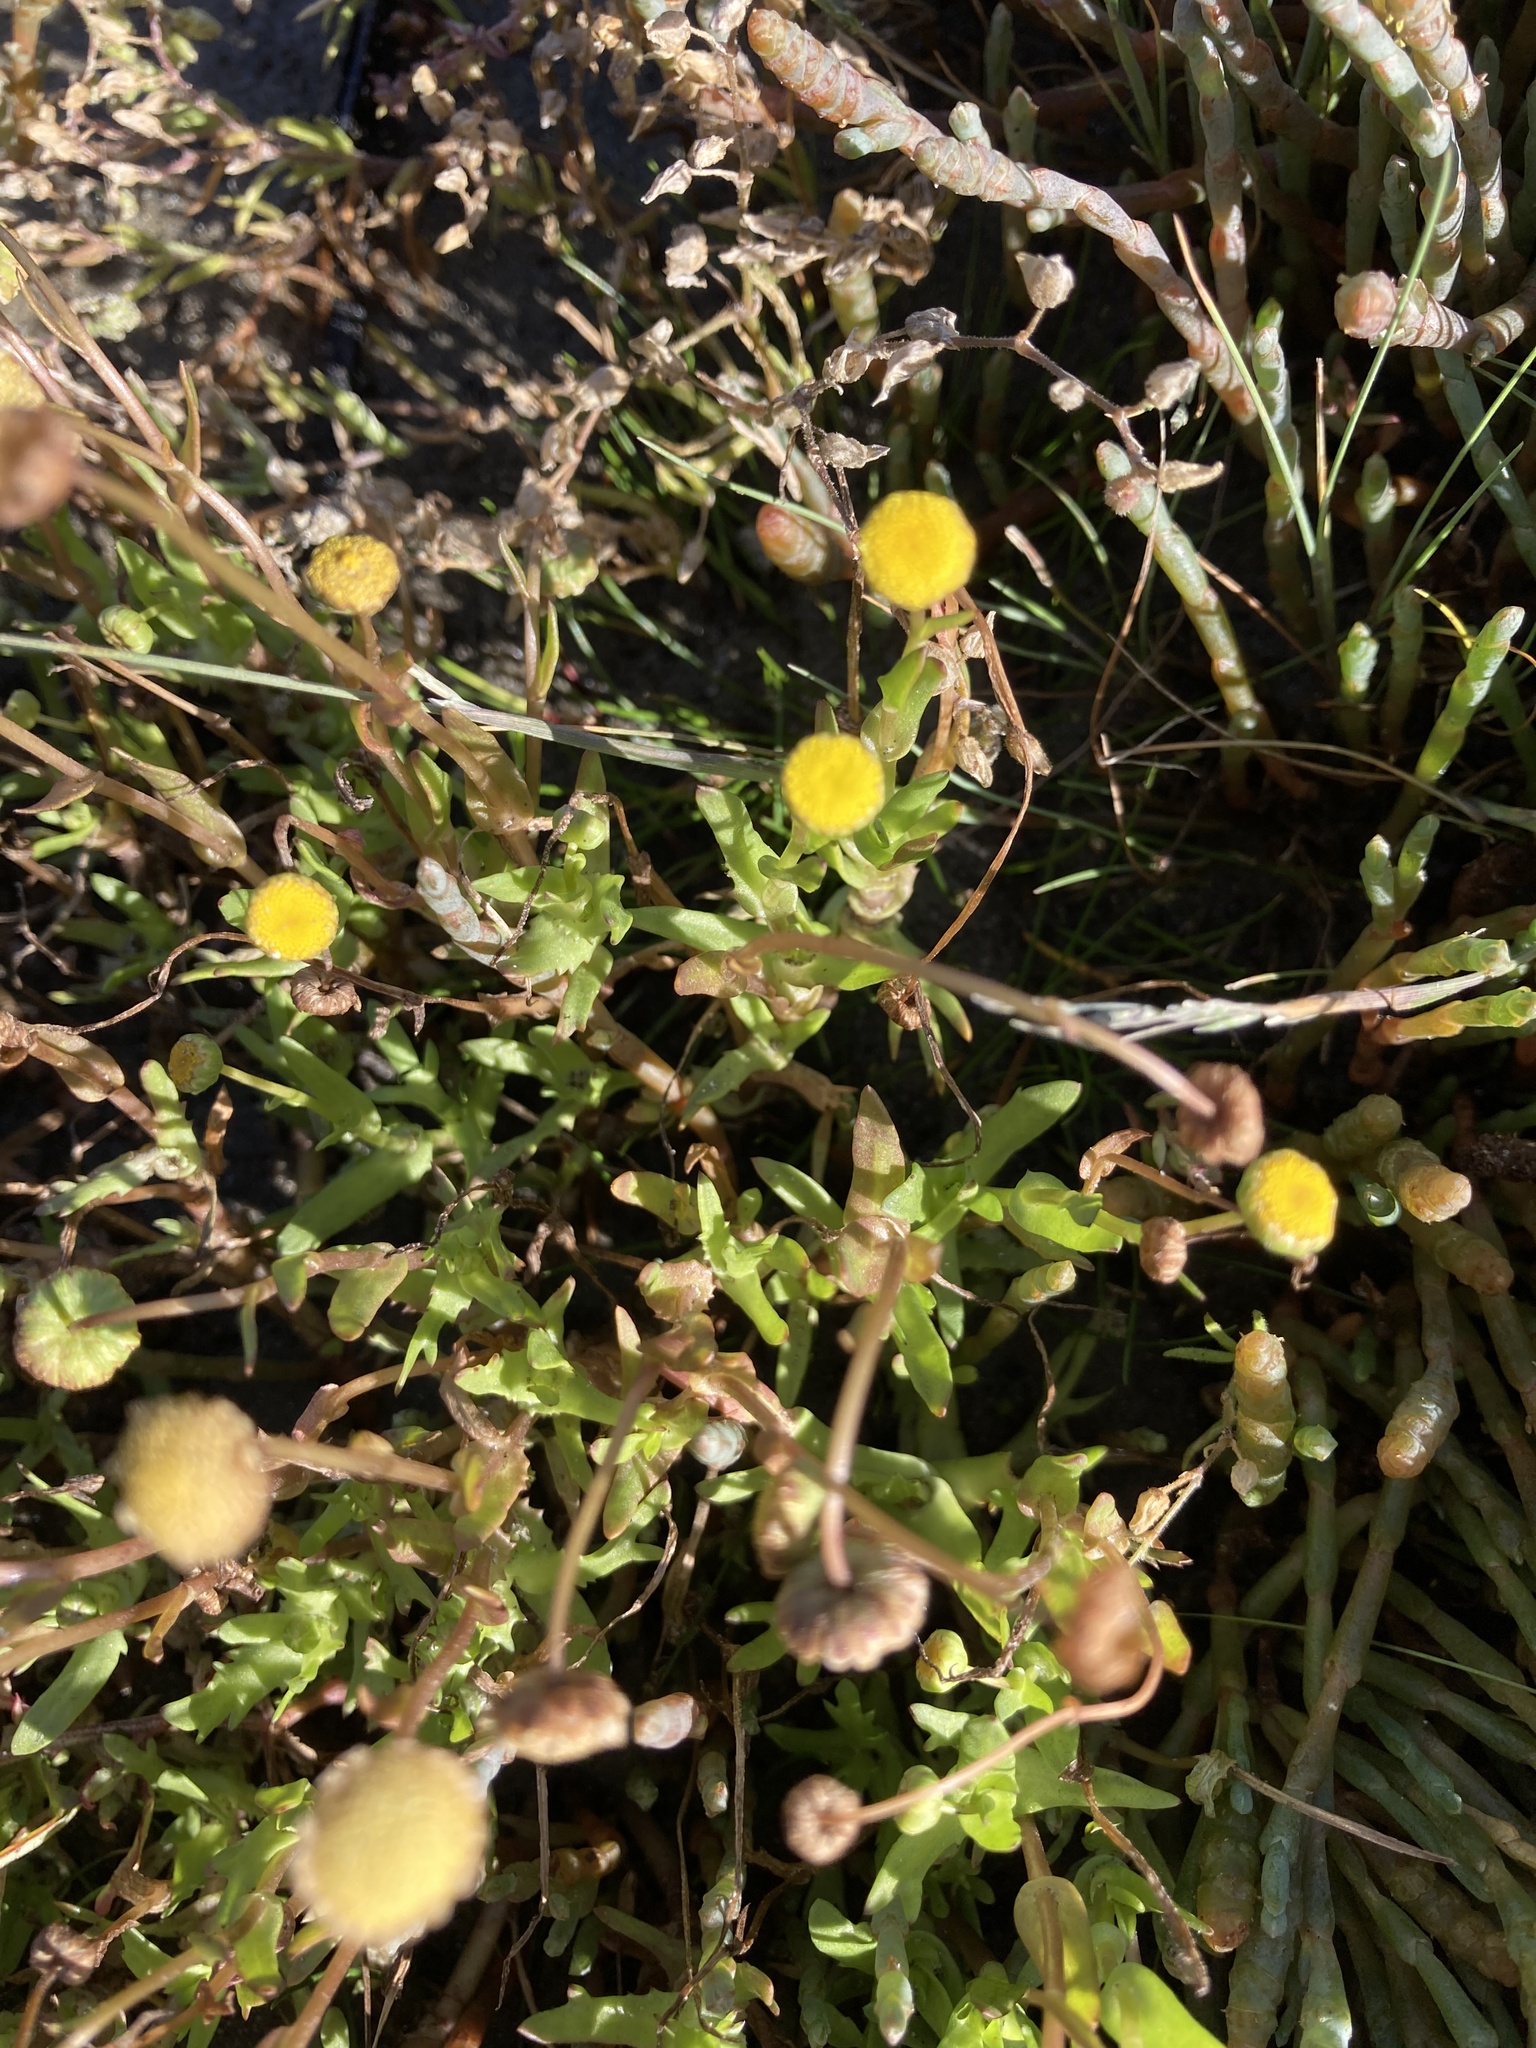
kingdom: Plantae
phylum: Tracheophyta
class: Magnoliopsida
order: Asterales
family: Asteraceae
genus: Cotula
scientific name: Cotula coronopifolia
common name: Buttonweed
